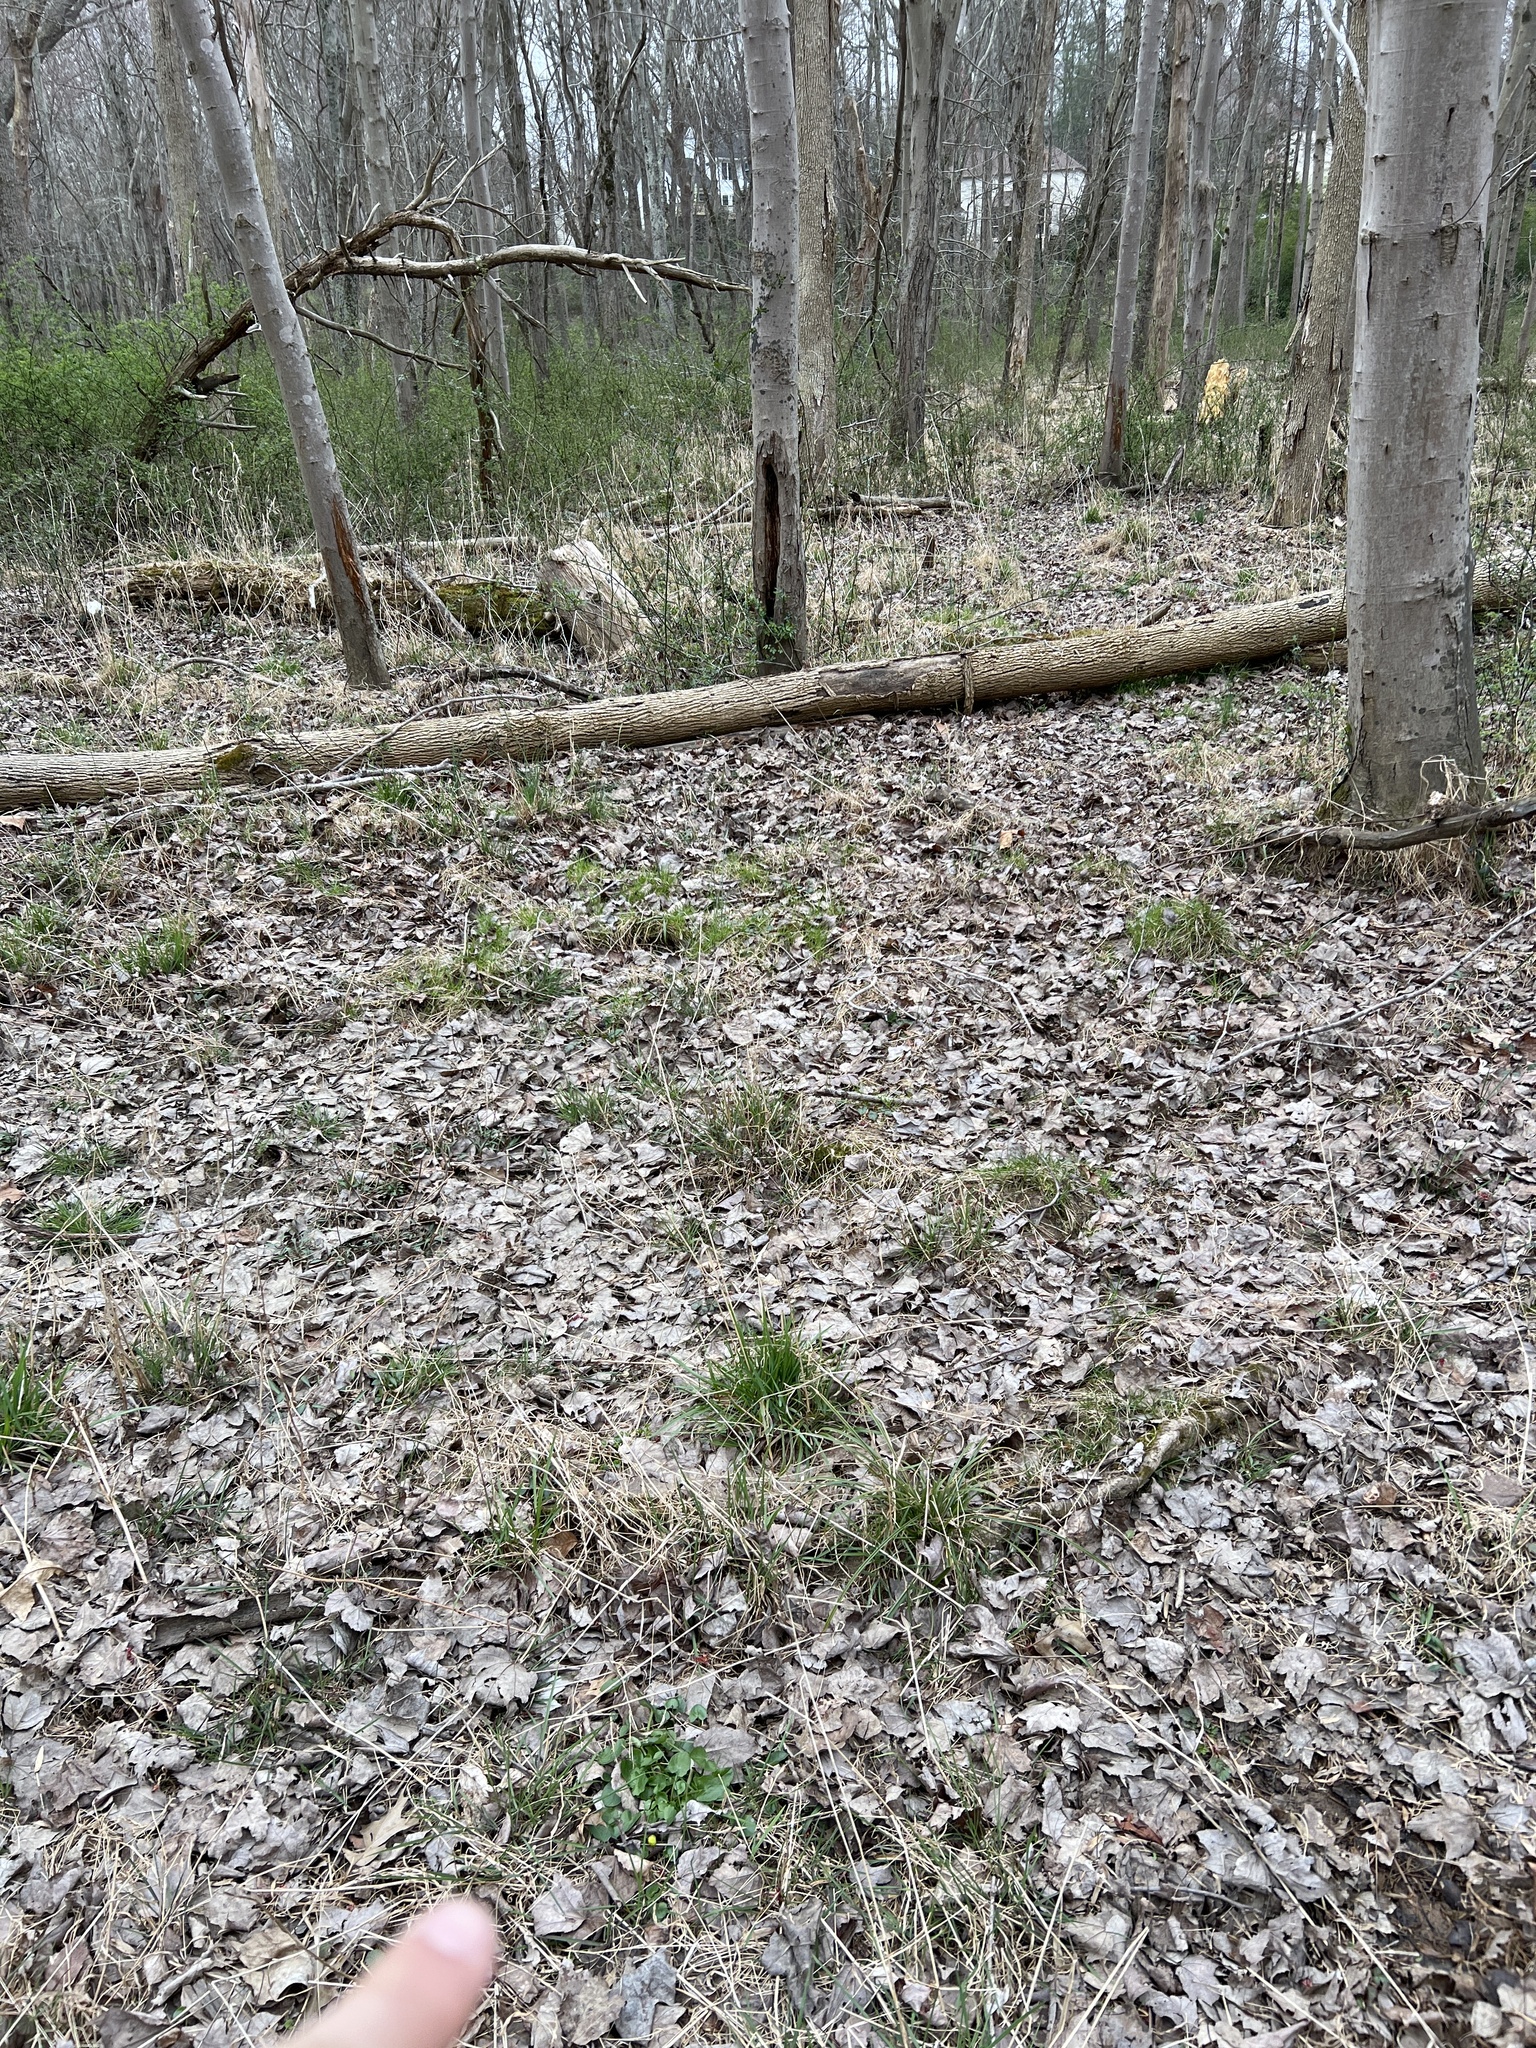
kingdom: Plantae
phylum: Tracheophyta
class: Magnoliopsida
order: Ranunculales
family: Ranunculaceae
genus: Ficaria
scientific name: Ficaria verna
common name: Lesser celandine
